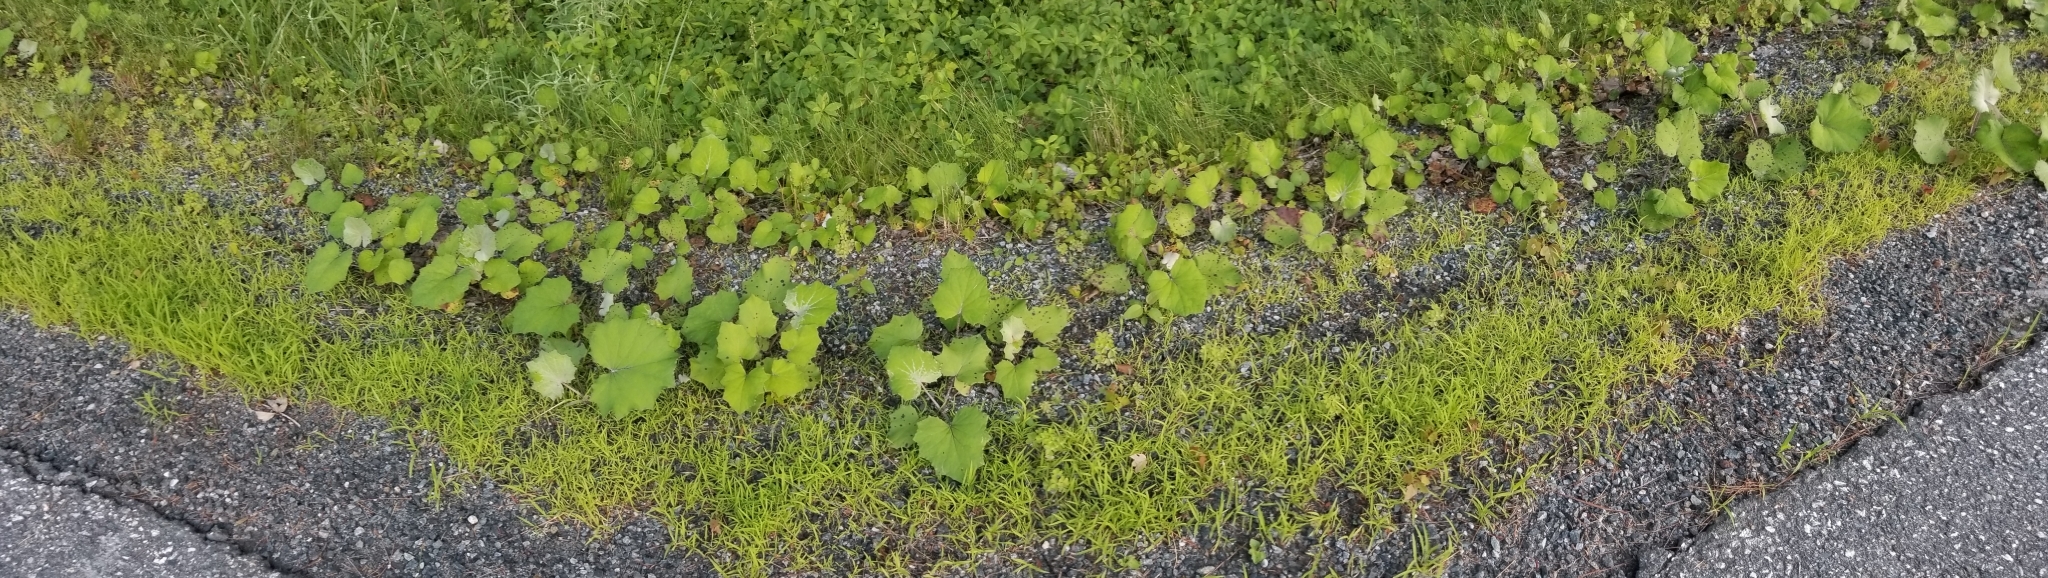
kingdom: Plantae
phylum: Tracheophyta
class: Magnoliopsida
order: Asterales
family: Asteraceae
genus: Tussilago
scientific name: Tussilago farfara
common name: Coltsfoot
